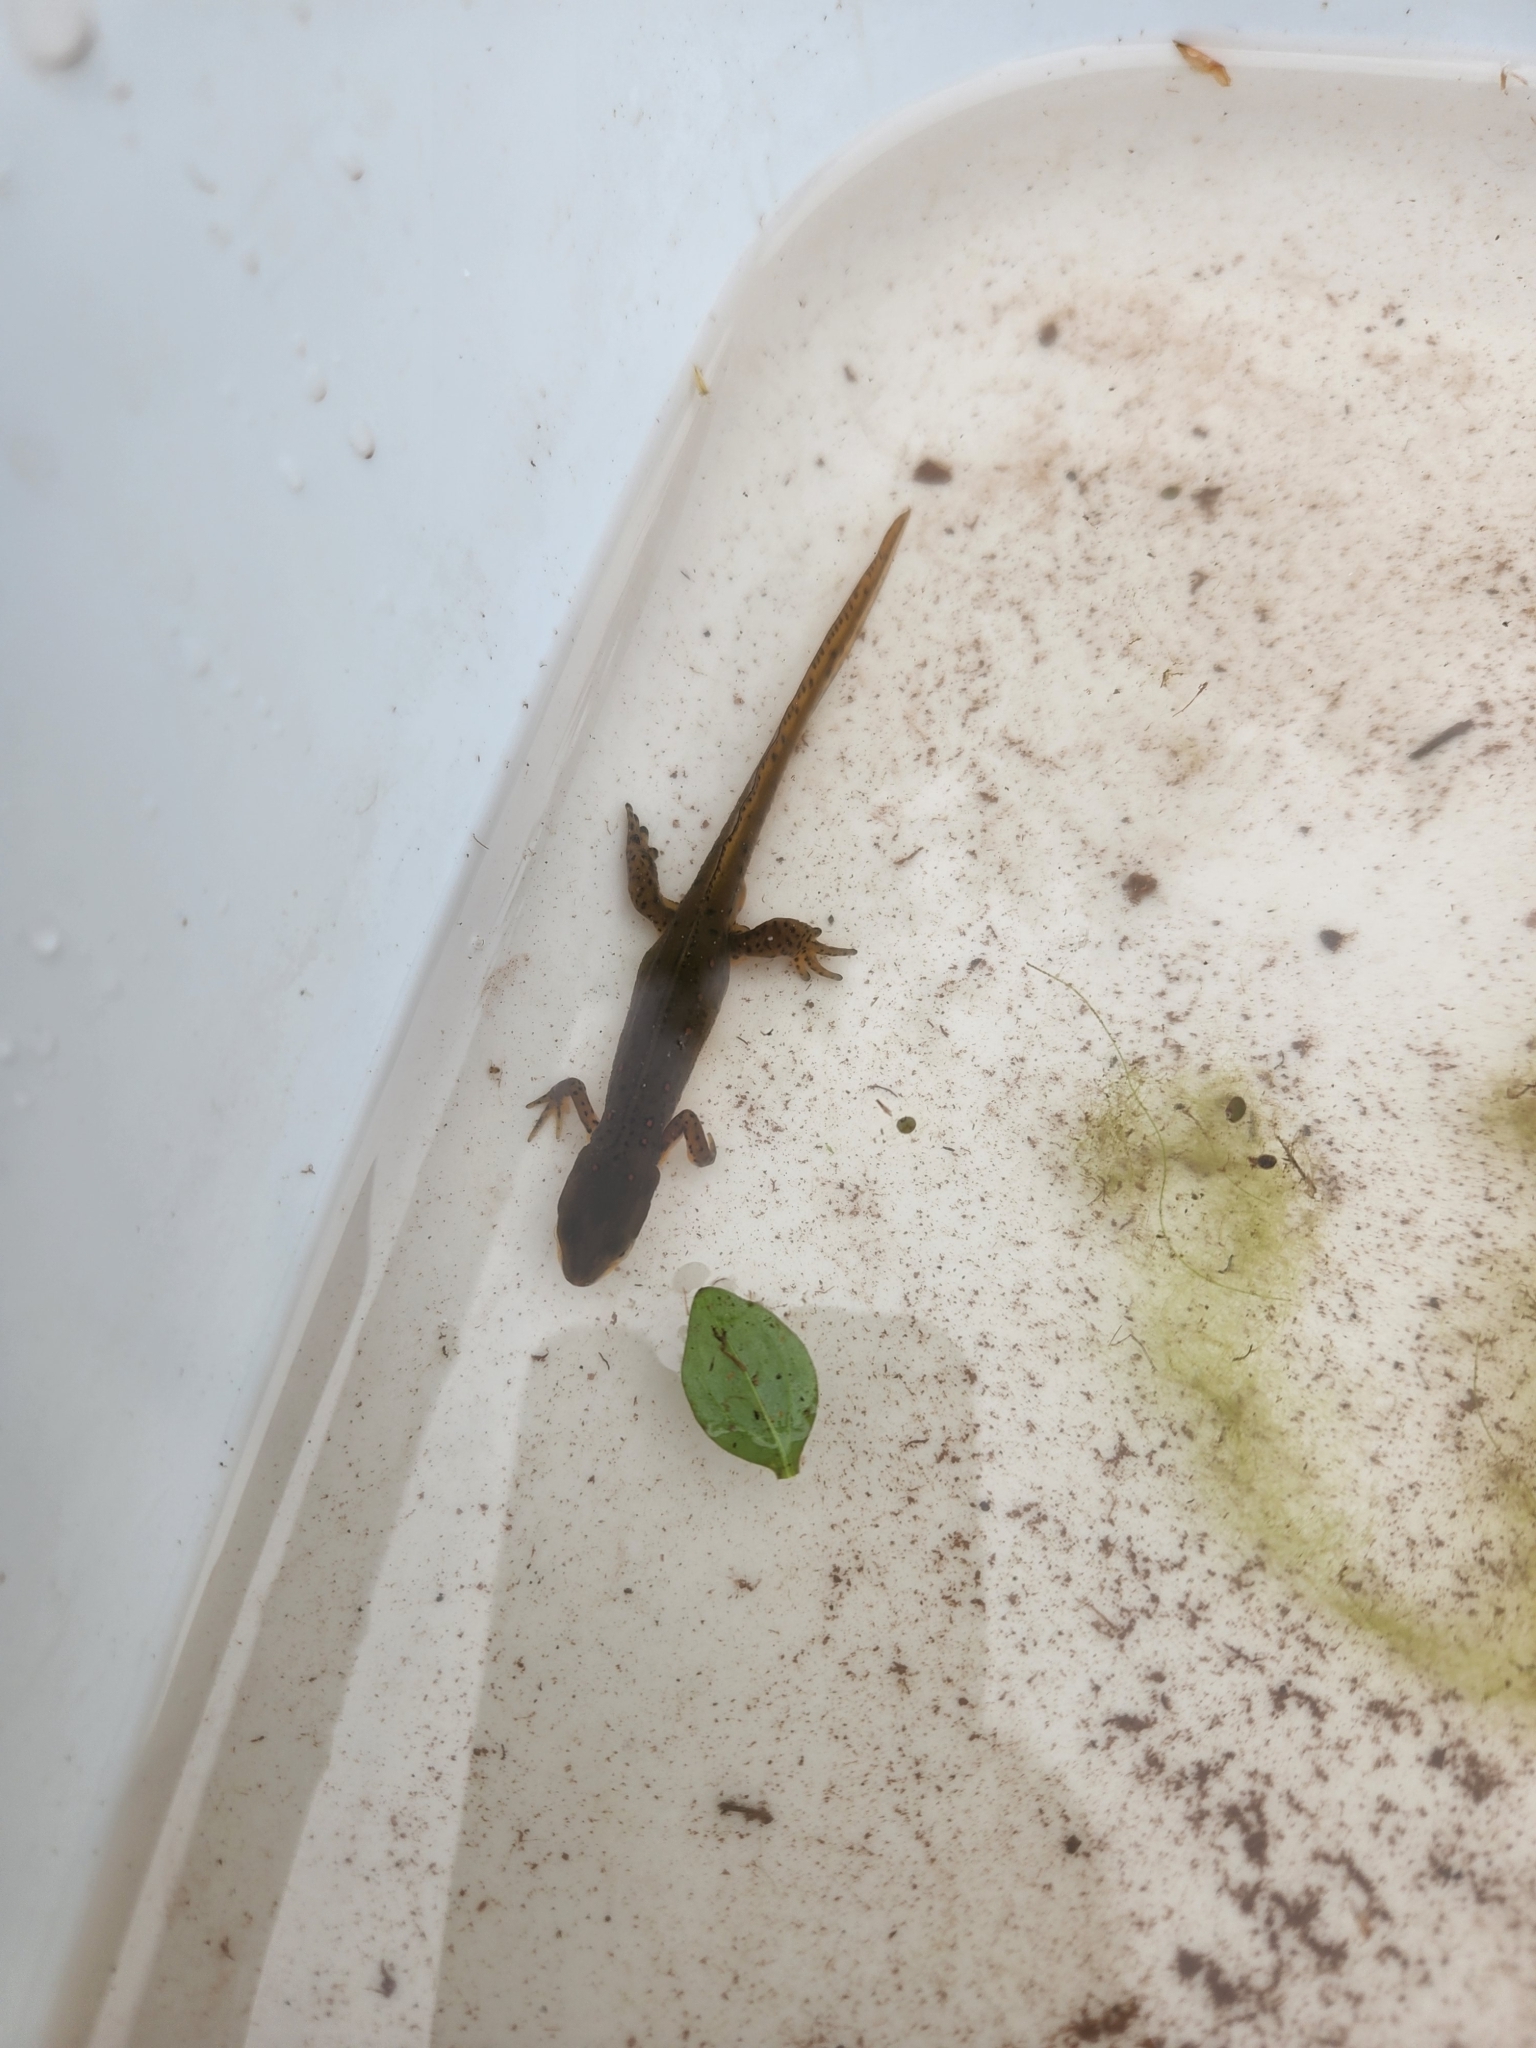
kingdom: Animalia
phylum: Chordata
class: Amphibia
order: Caudata
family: Salamandridae
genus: Notophthalmus
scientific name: Notophthalmus viridescens
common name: Eastern newt
